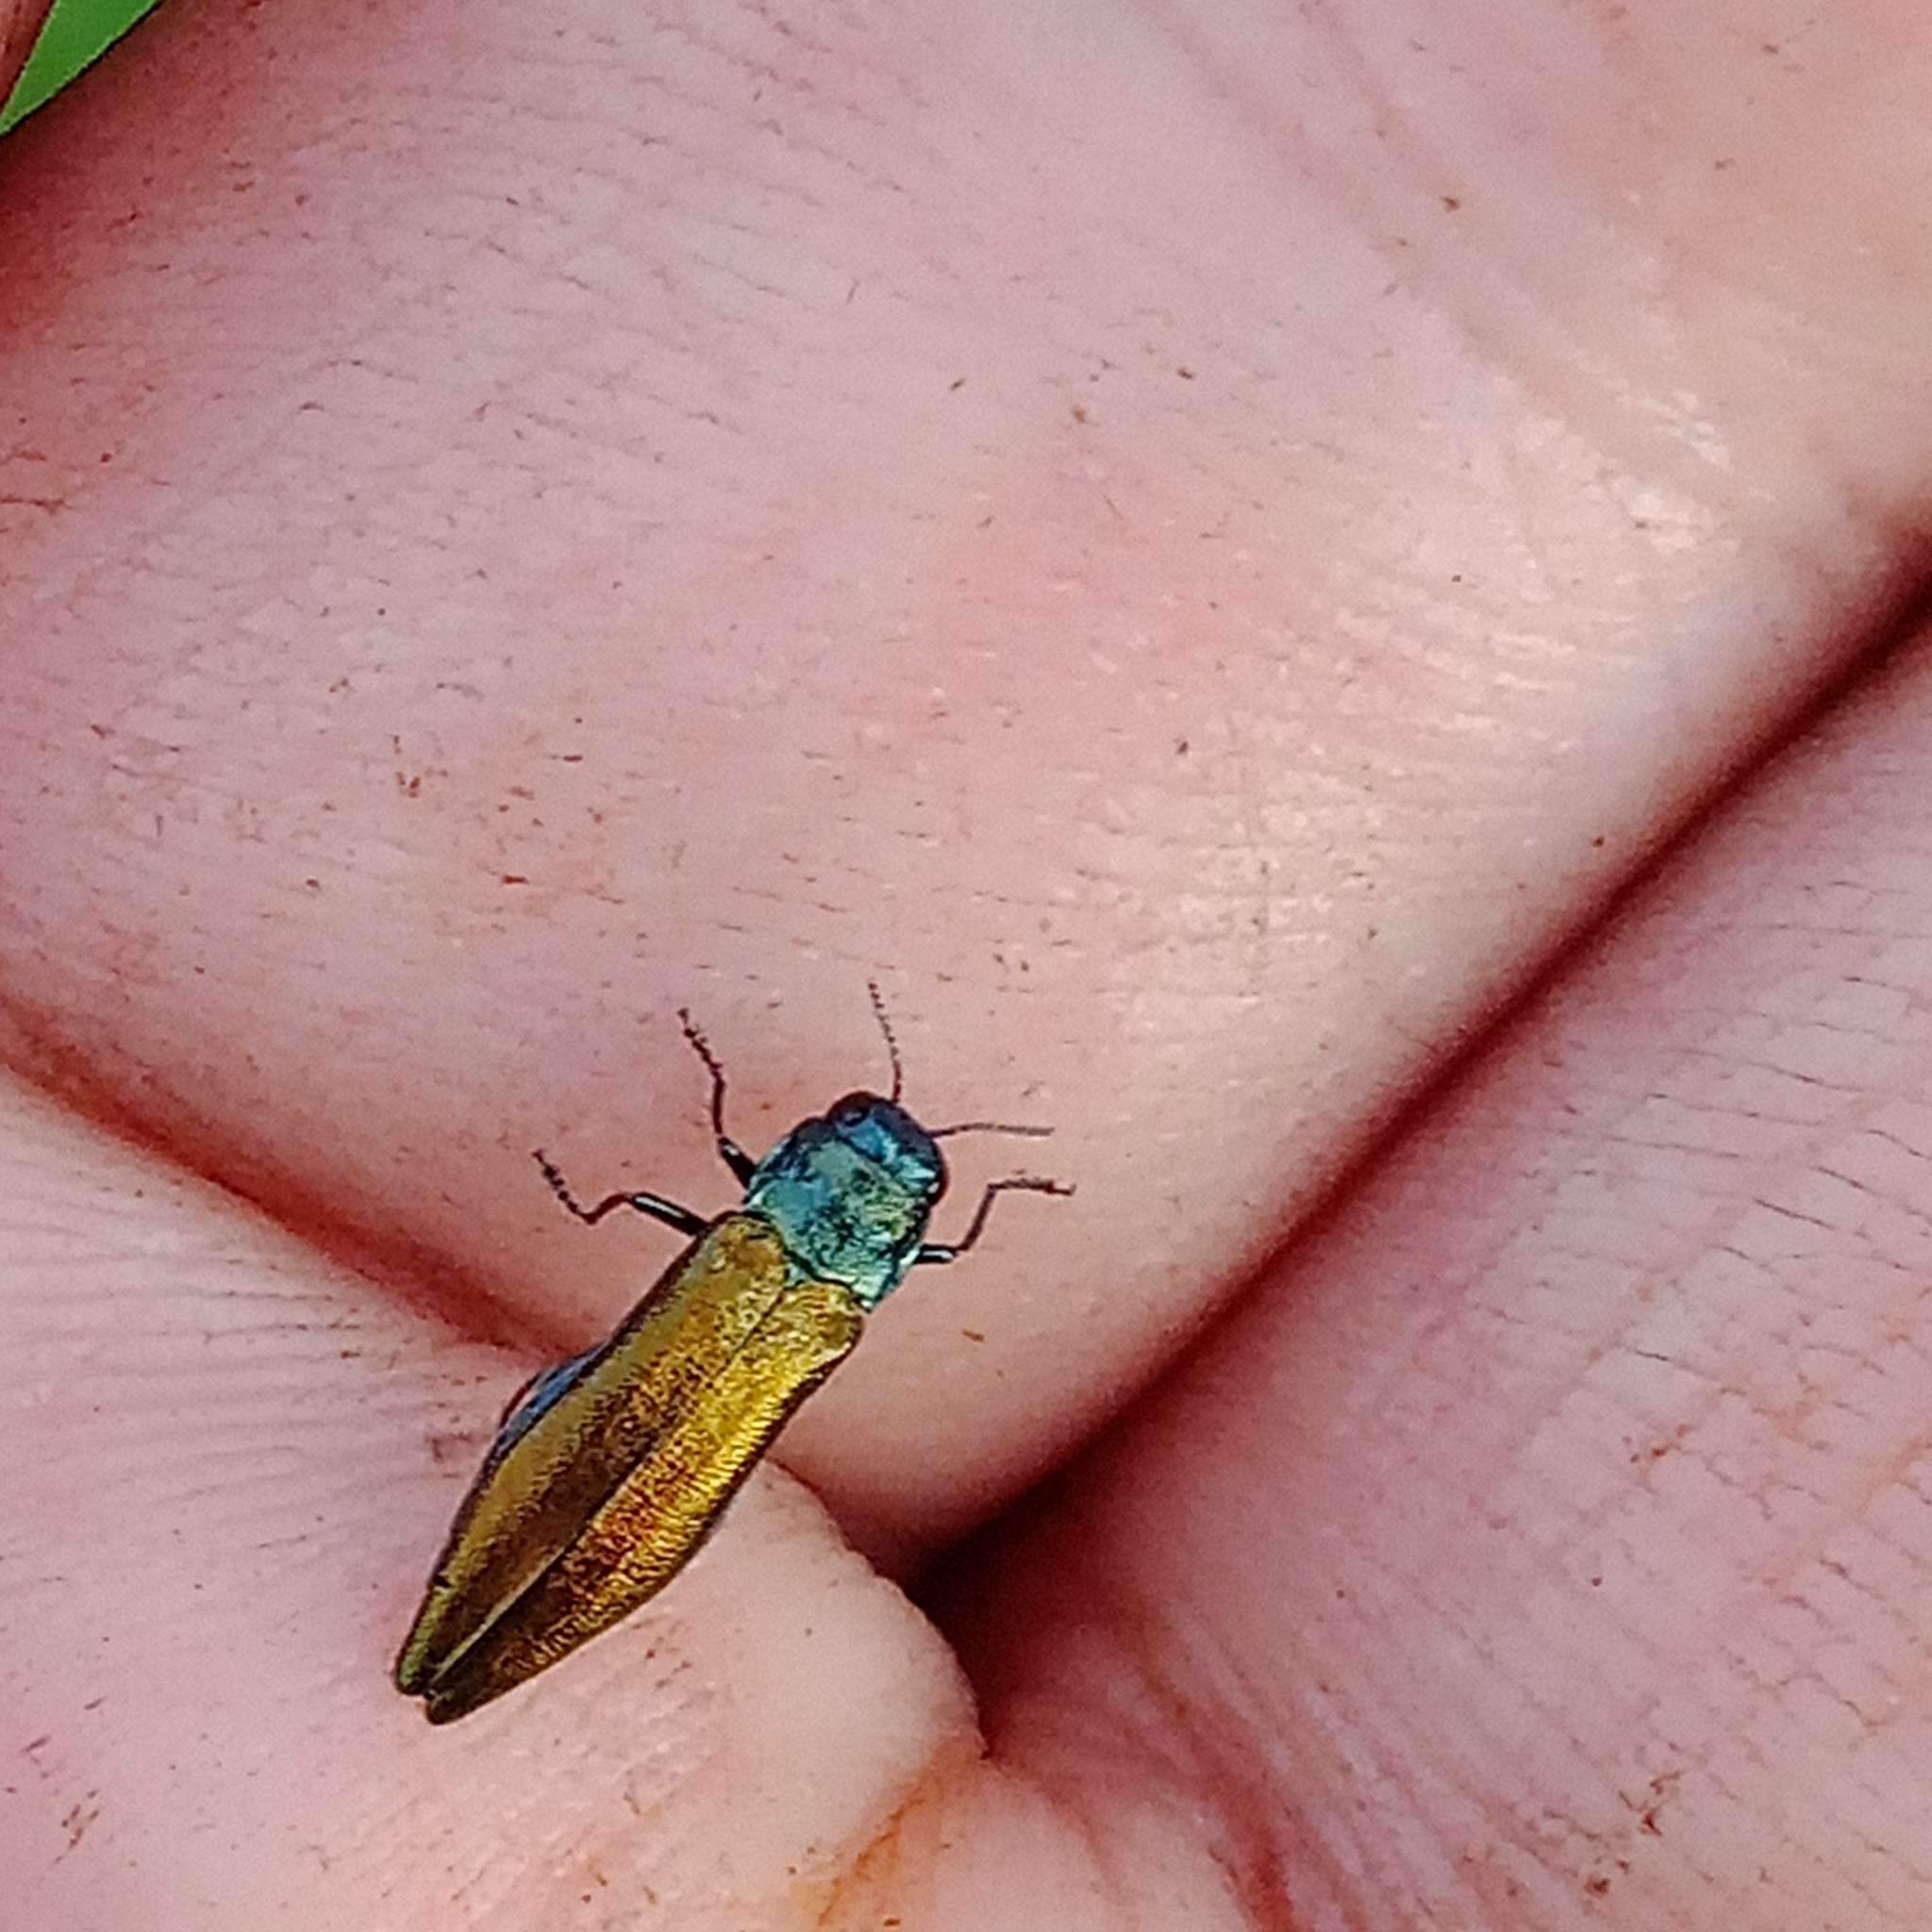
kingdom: Animalia
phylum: Arthropoda
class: Insecta
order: Coleoptera
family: Buprestidae
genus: Agrilus
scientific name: Agrilus subauratus
